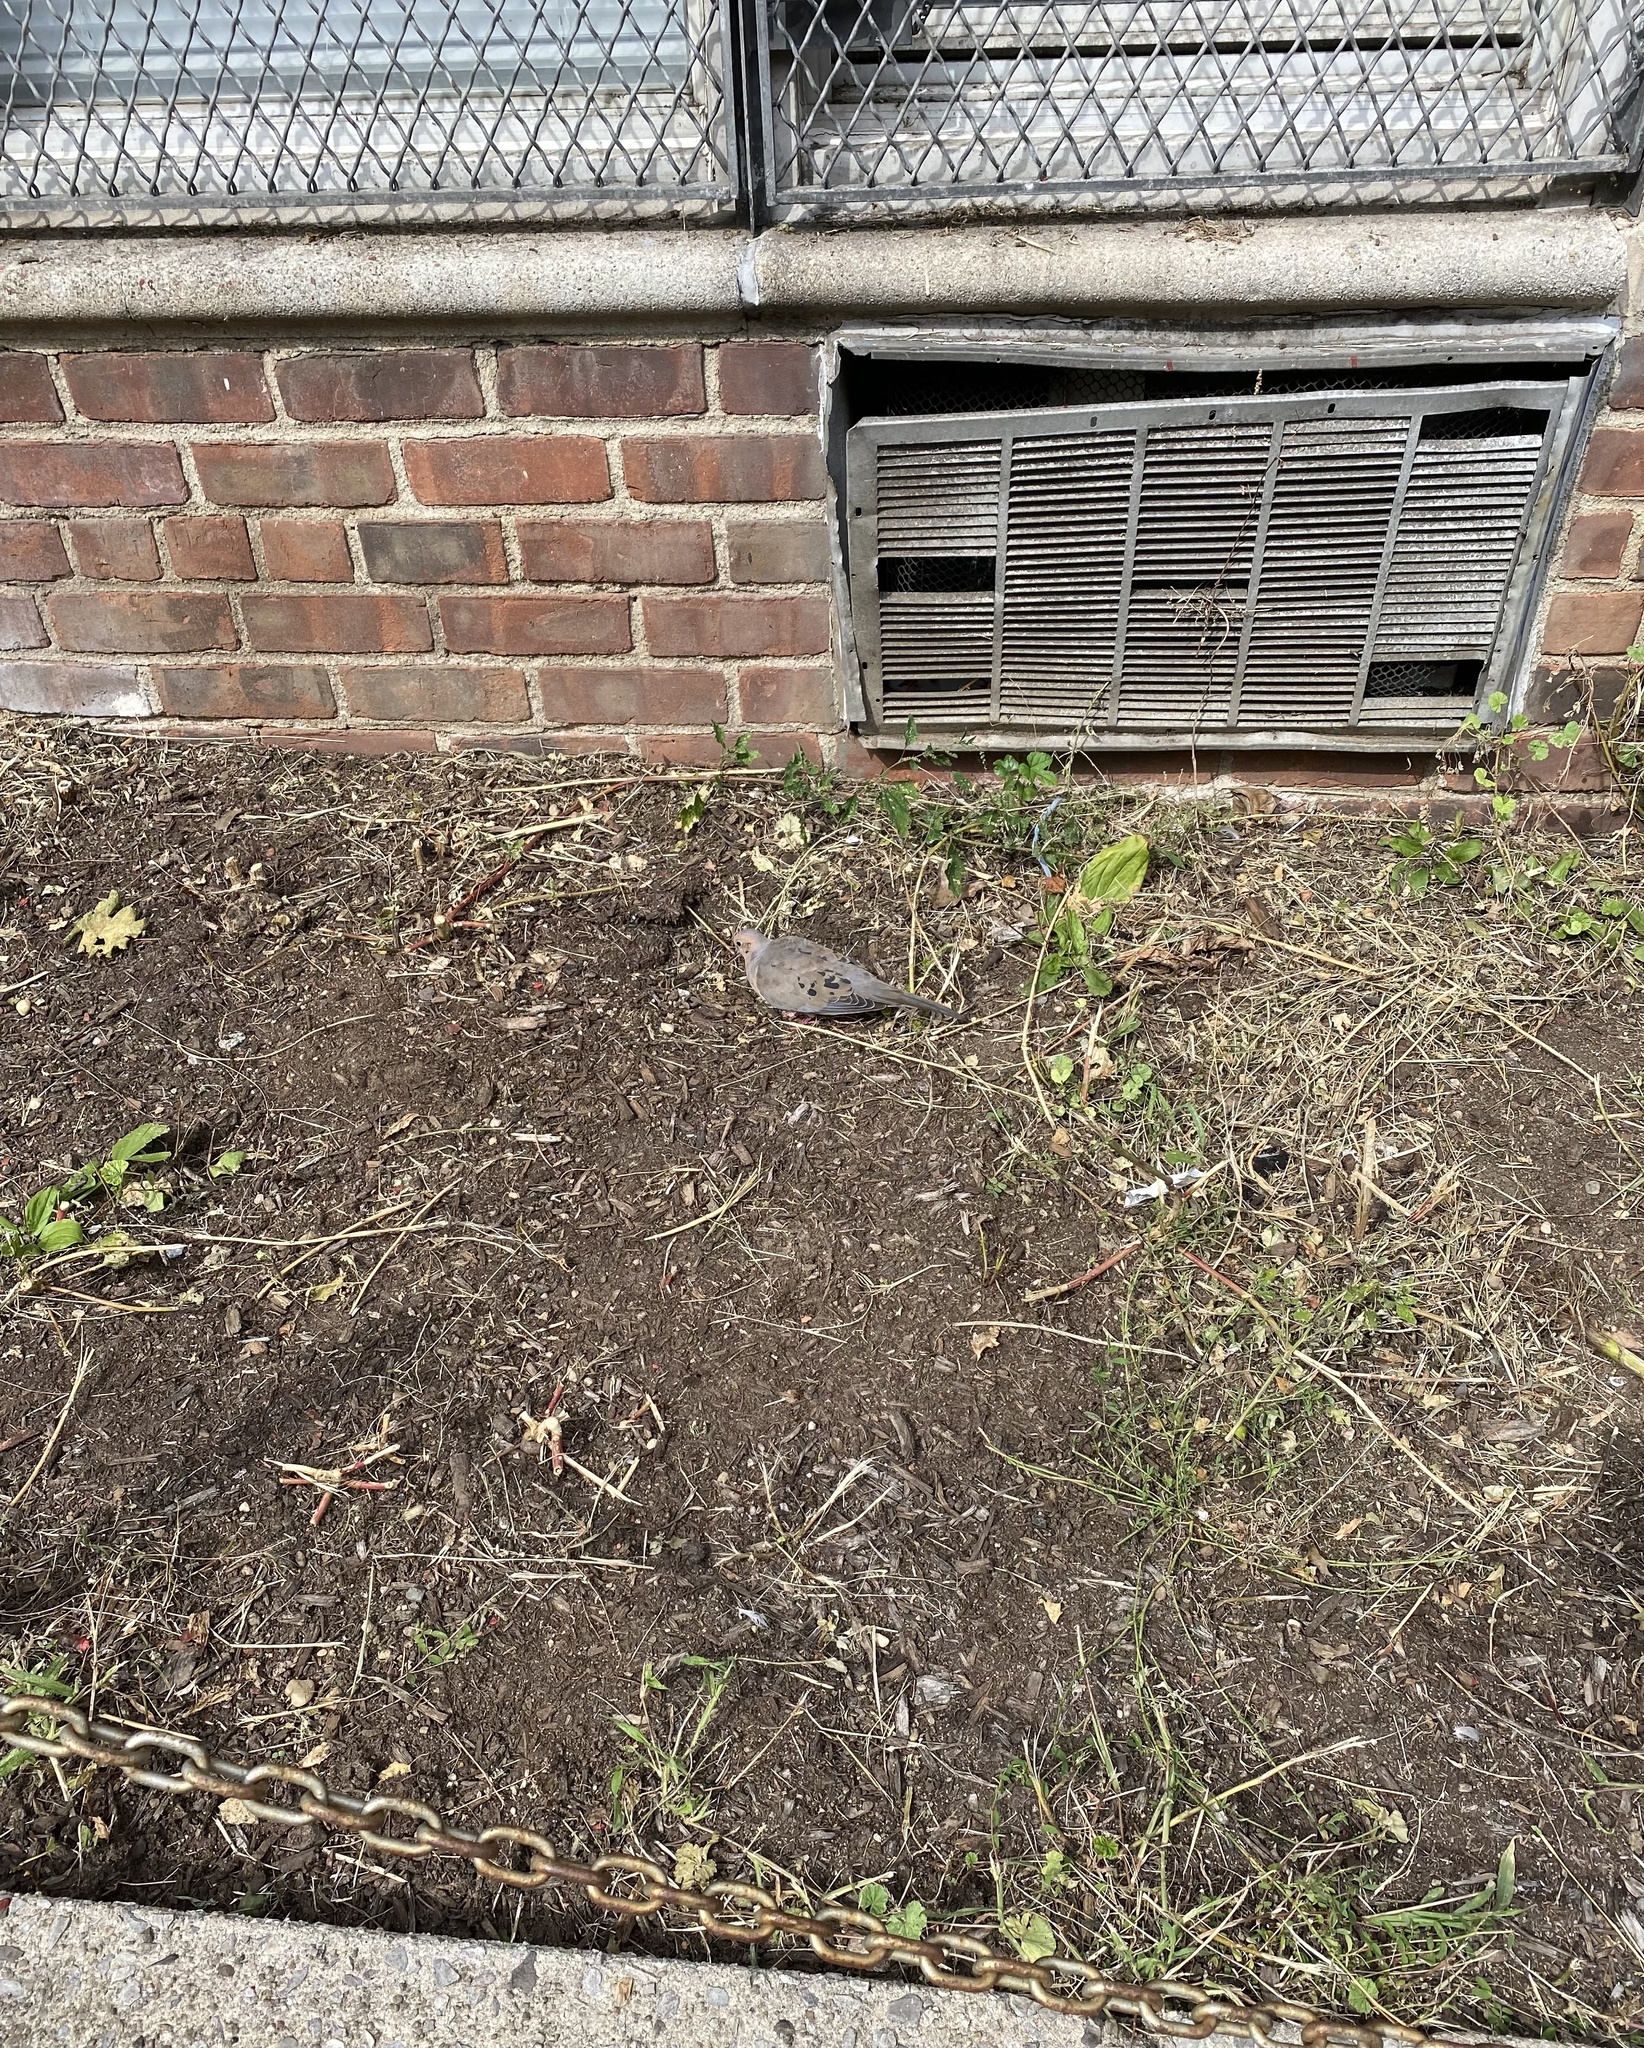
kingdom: Animalia
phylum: Chordata
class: Aves
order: Columbiformes
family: Columbidae
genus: Zenaida
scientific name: Zenaida macroura
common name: Mourning dove
